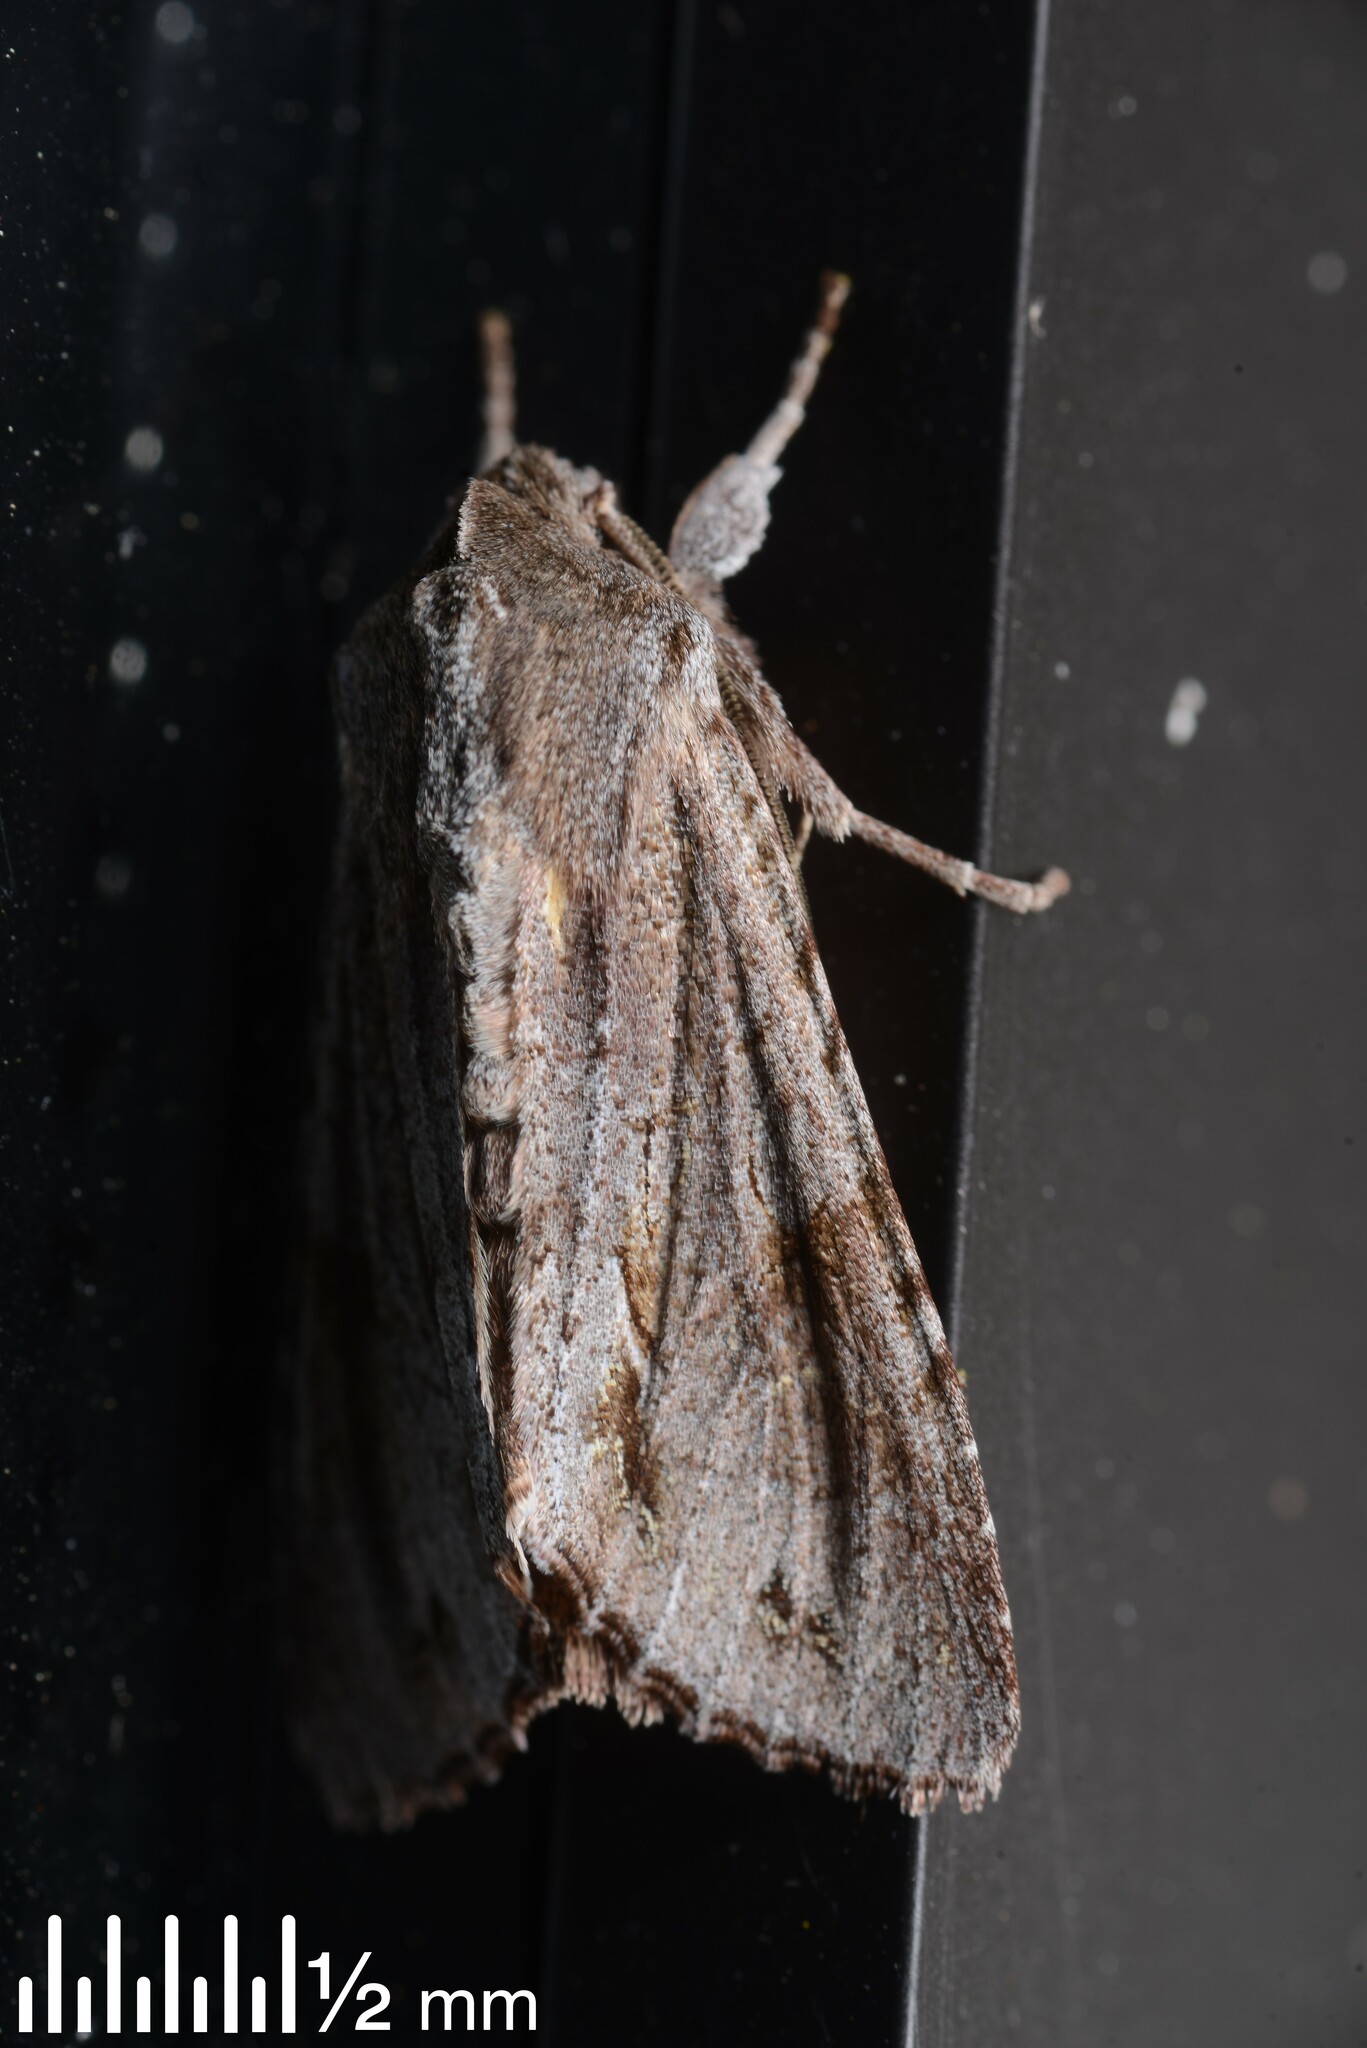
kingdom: Animalia
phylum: Arthropoda
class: Insecta
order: Lepidoptera
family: Noctuidae
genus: Ichneutica
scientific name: Ichneutica
